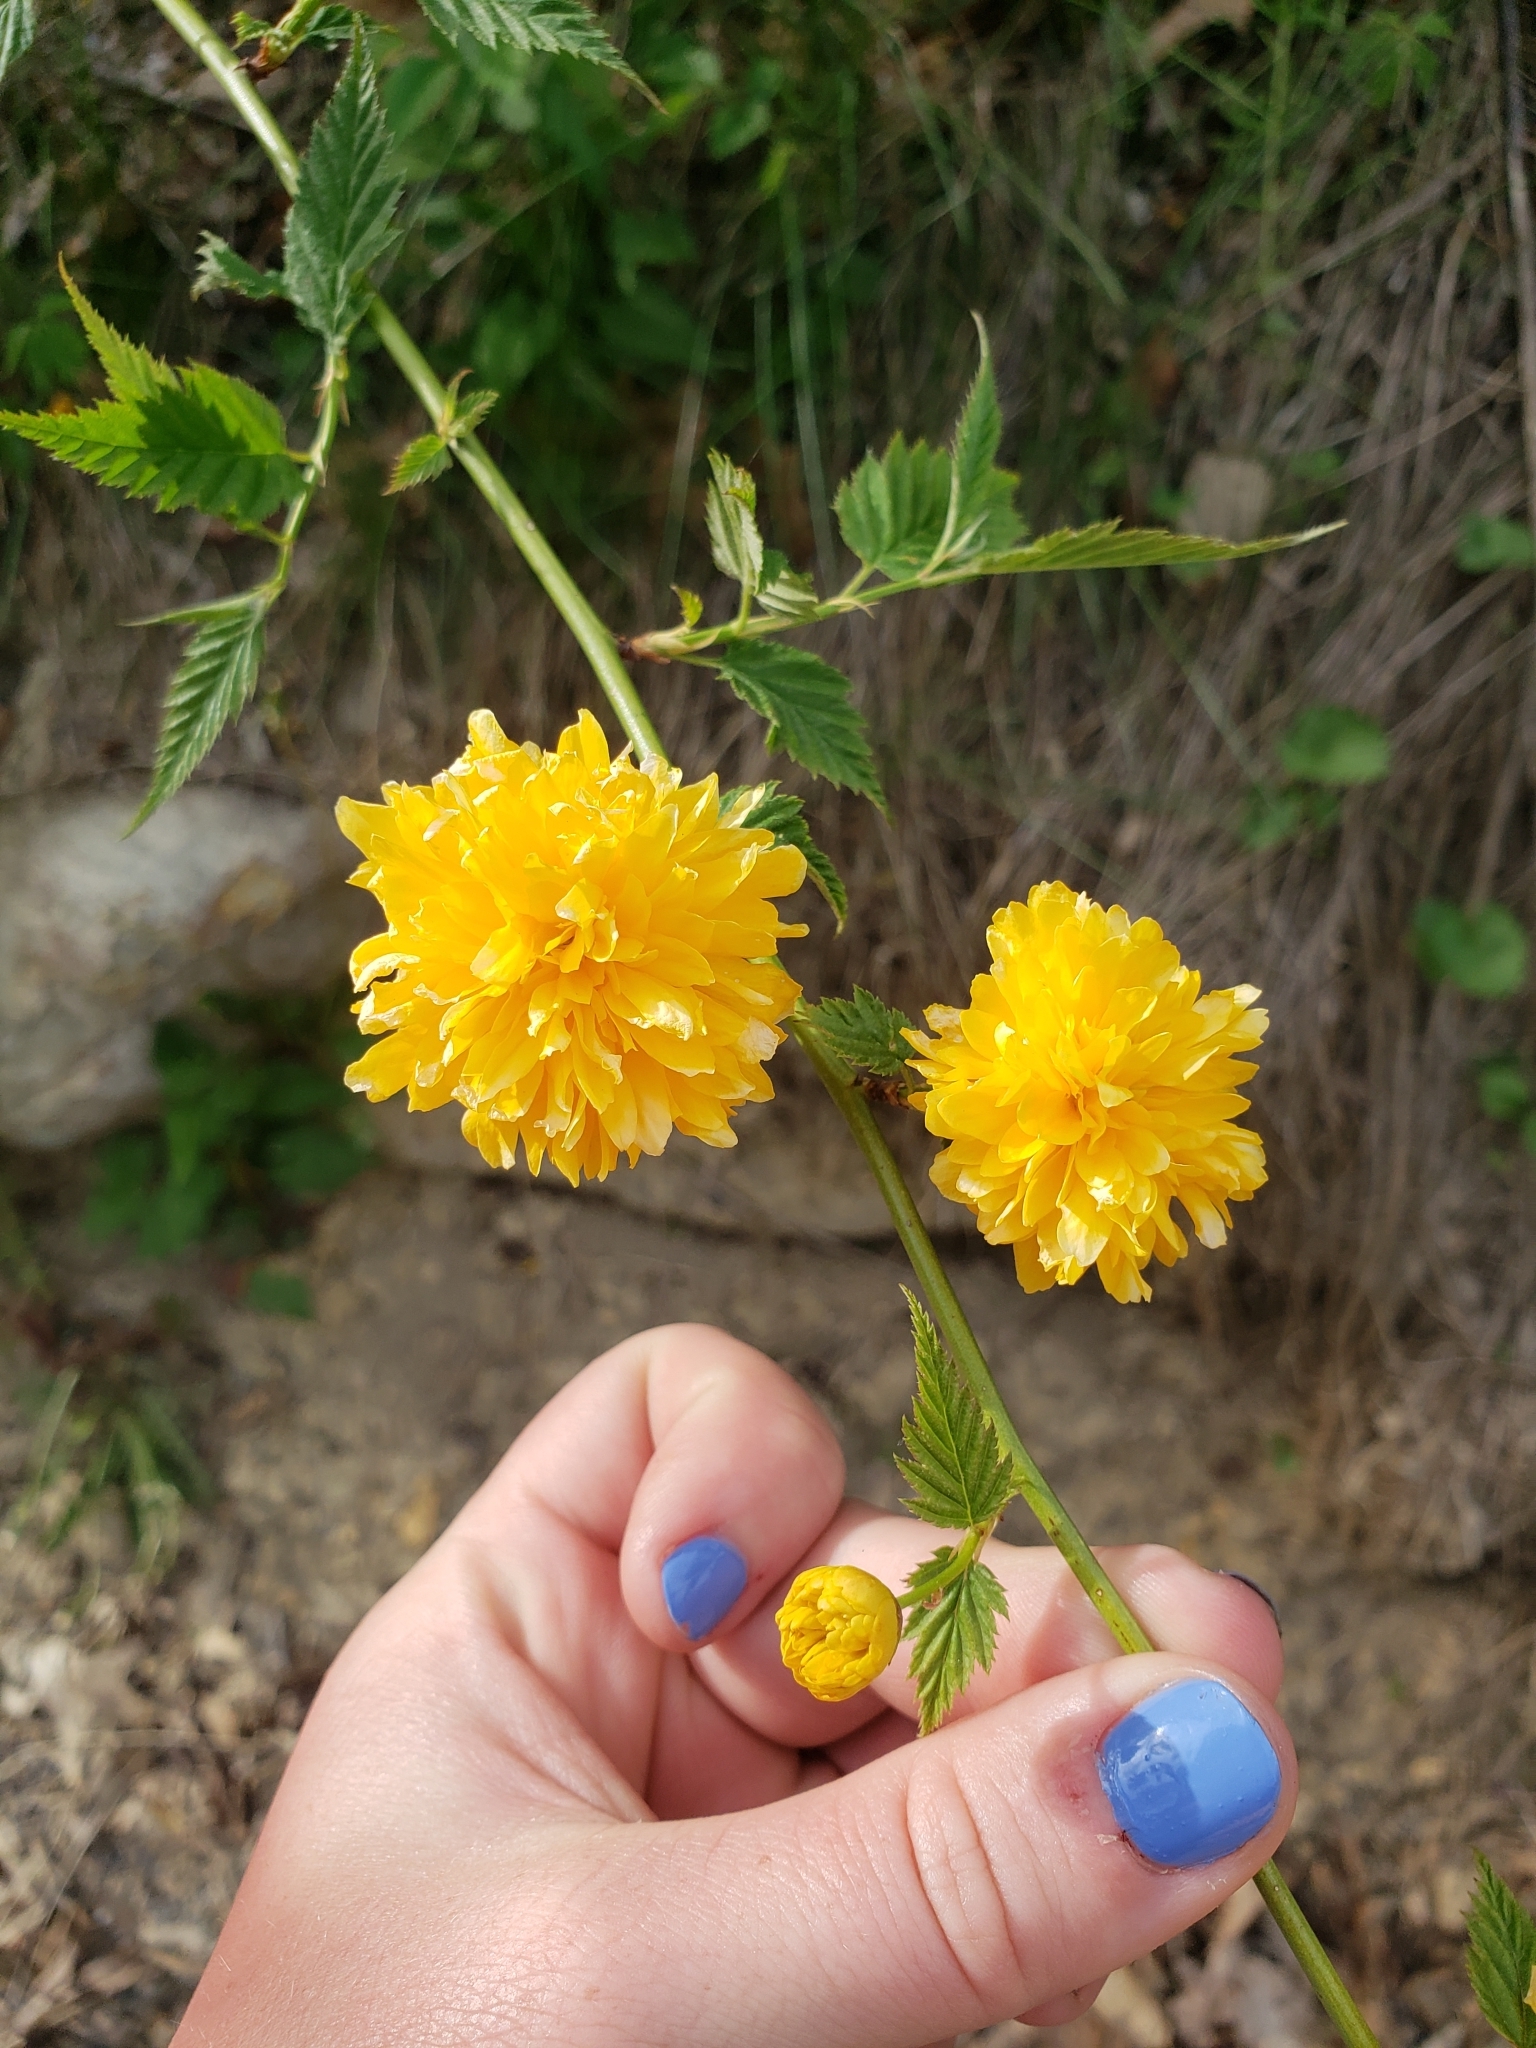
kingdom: Plantae
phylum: Tracheophyta
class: Magnoliopsida
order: Rosales
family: Rosaceae
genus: Kerria
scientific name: Kerria japonica
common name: Japanese kerria
